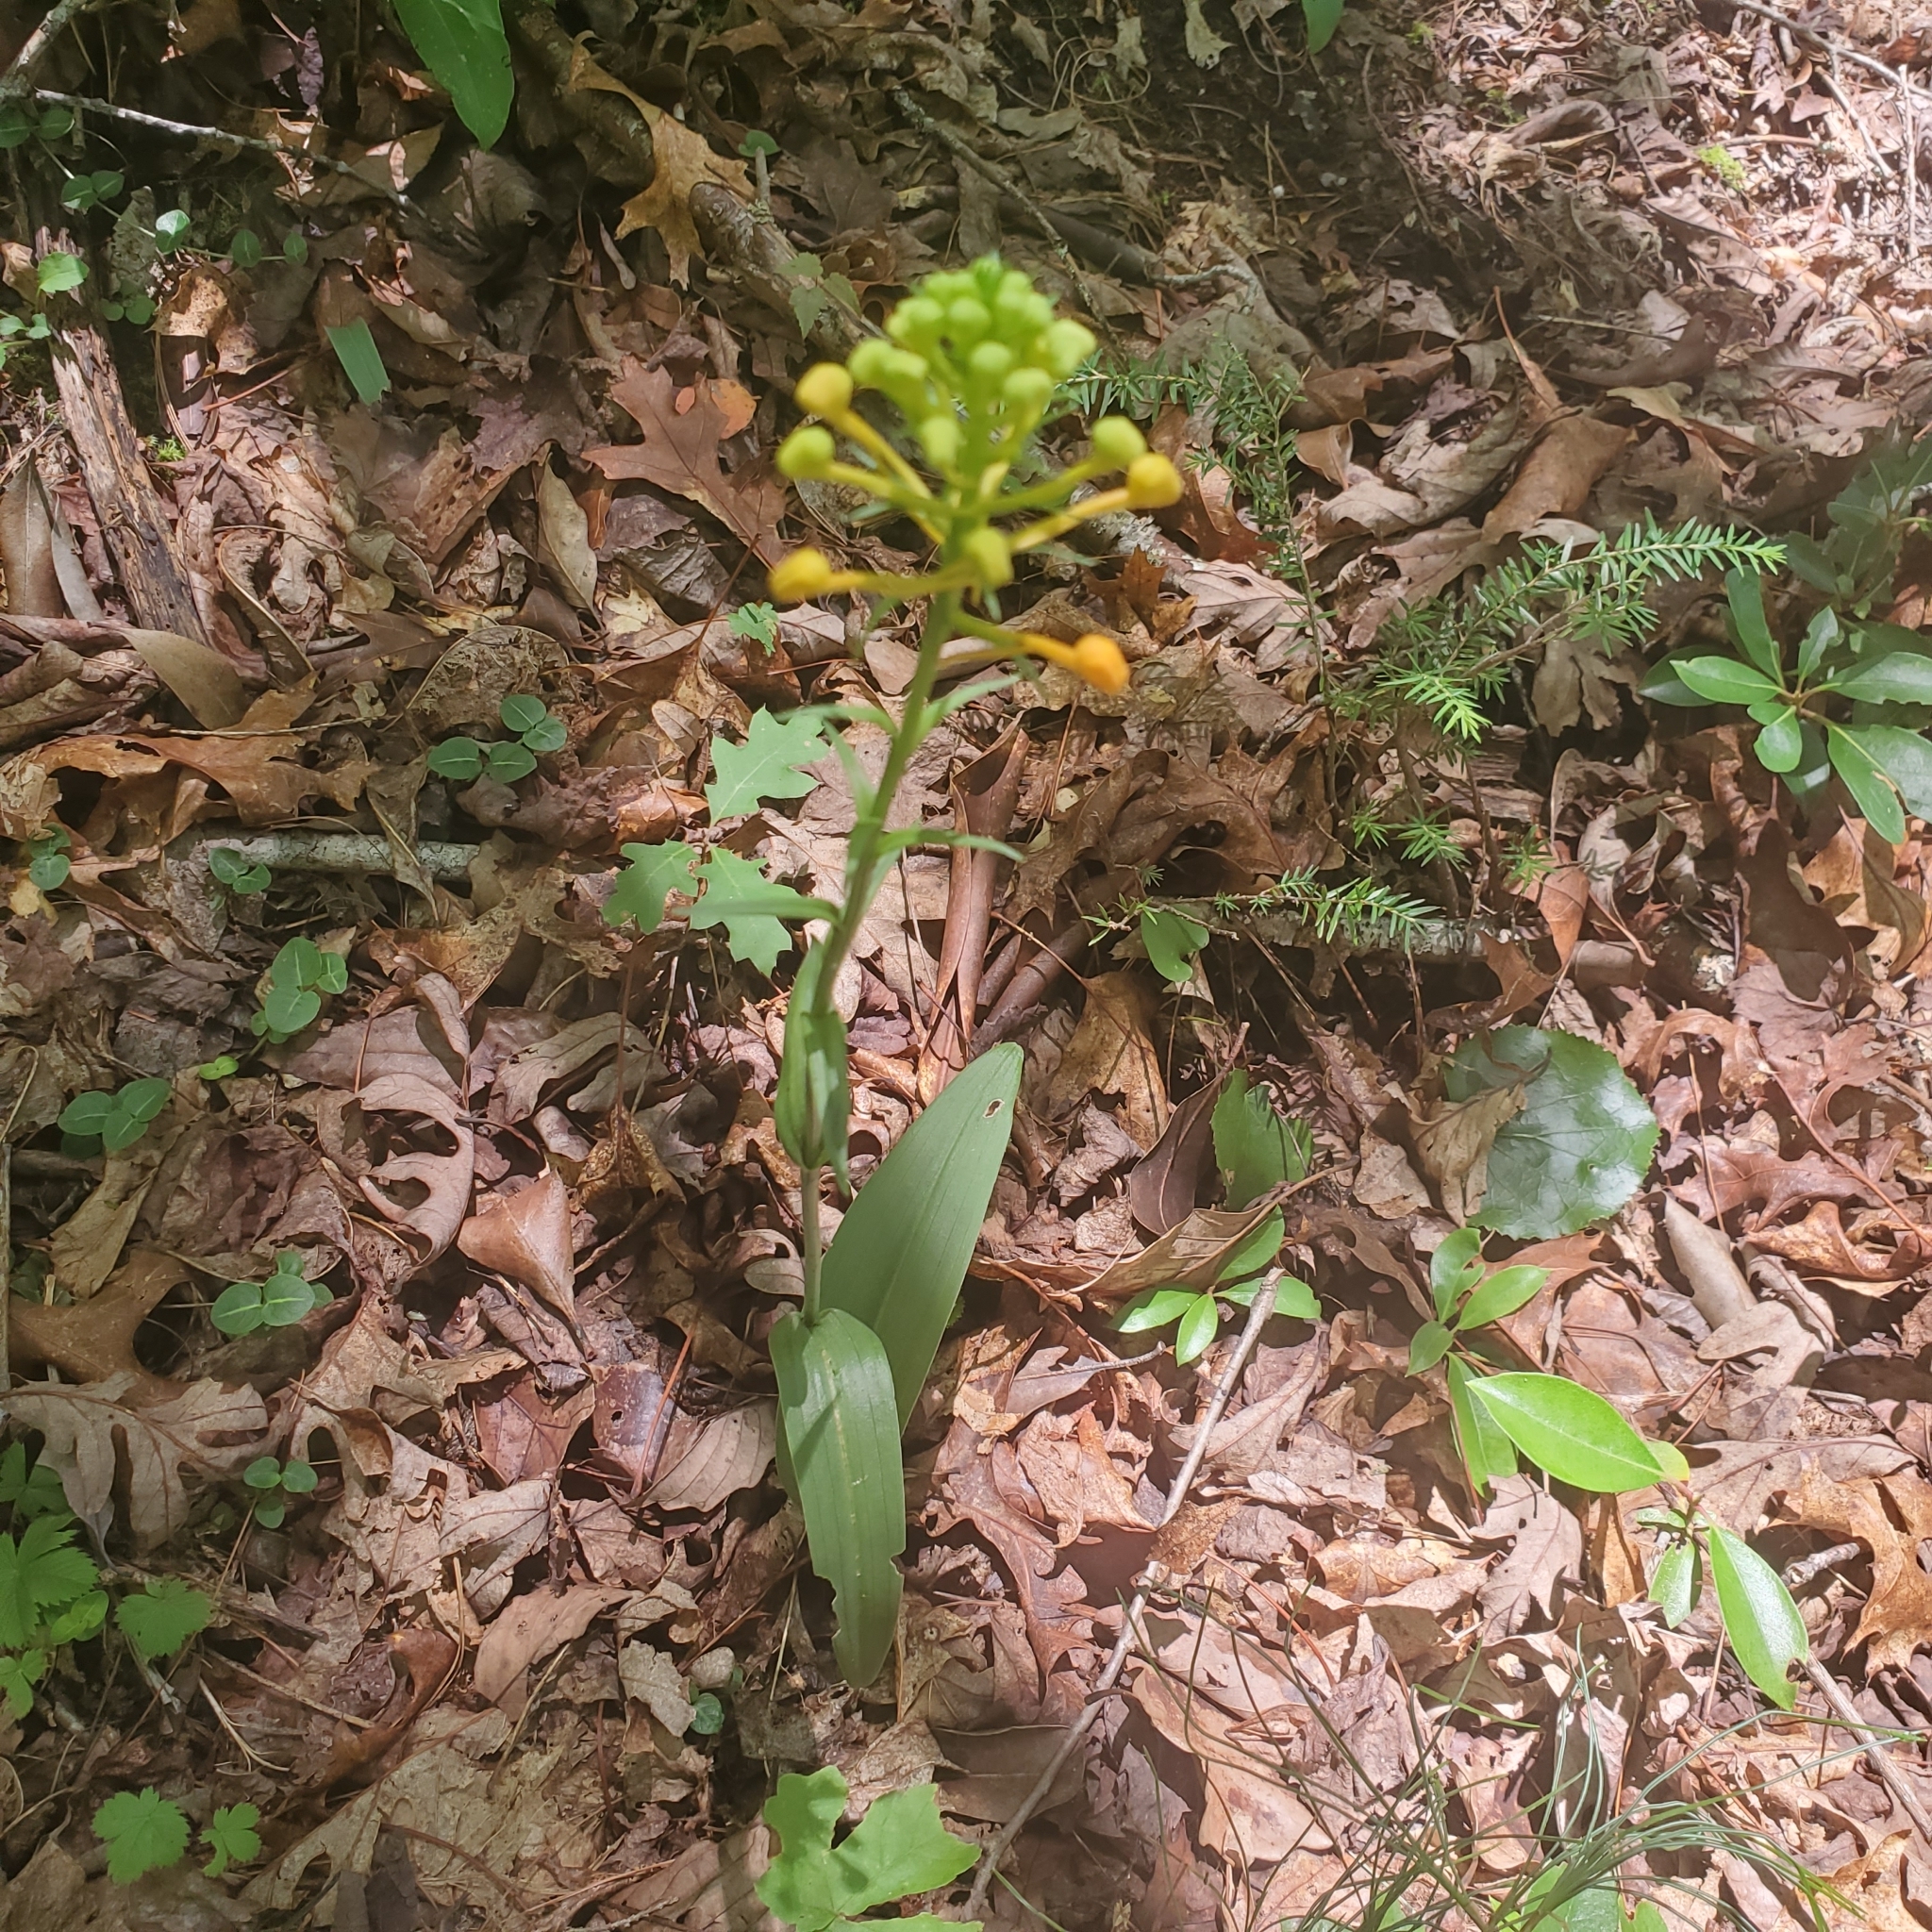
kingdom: Plantae
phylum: Tracheophyta
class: Liliopsida
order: Asparagales
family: Orchidaceae
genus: Platanthera
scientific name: Platanthera ciliaris
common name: Yellow fringed orchid
